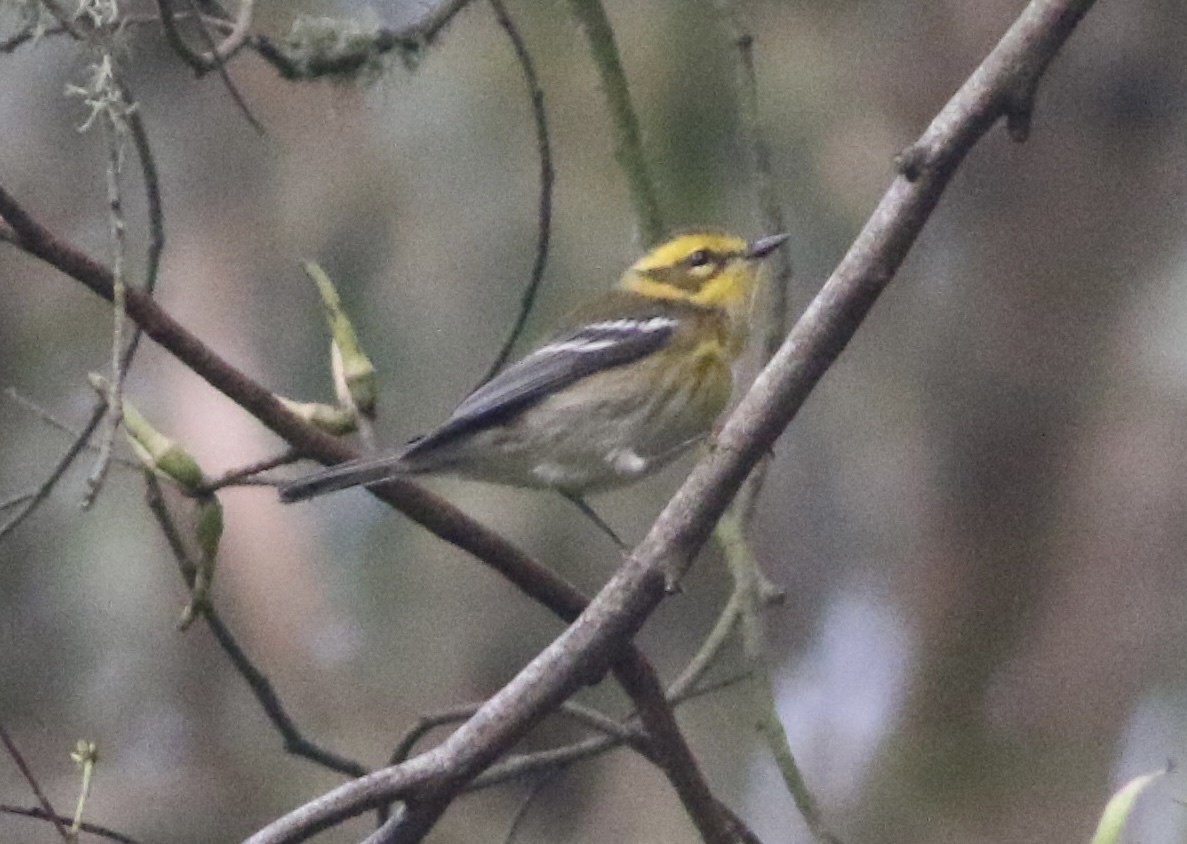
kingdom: Animalia
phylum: Chordata
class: Aves
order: Passeriformes
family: Parulidae
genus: Setophaga
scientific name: Setophaga townsendi
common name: Townsend's warbler
